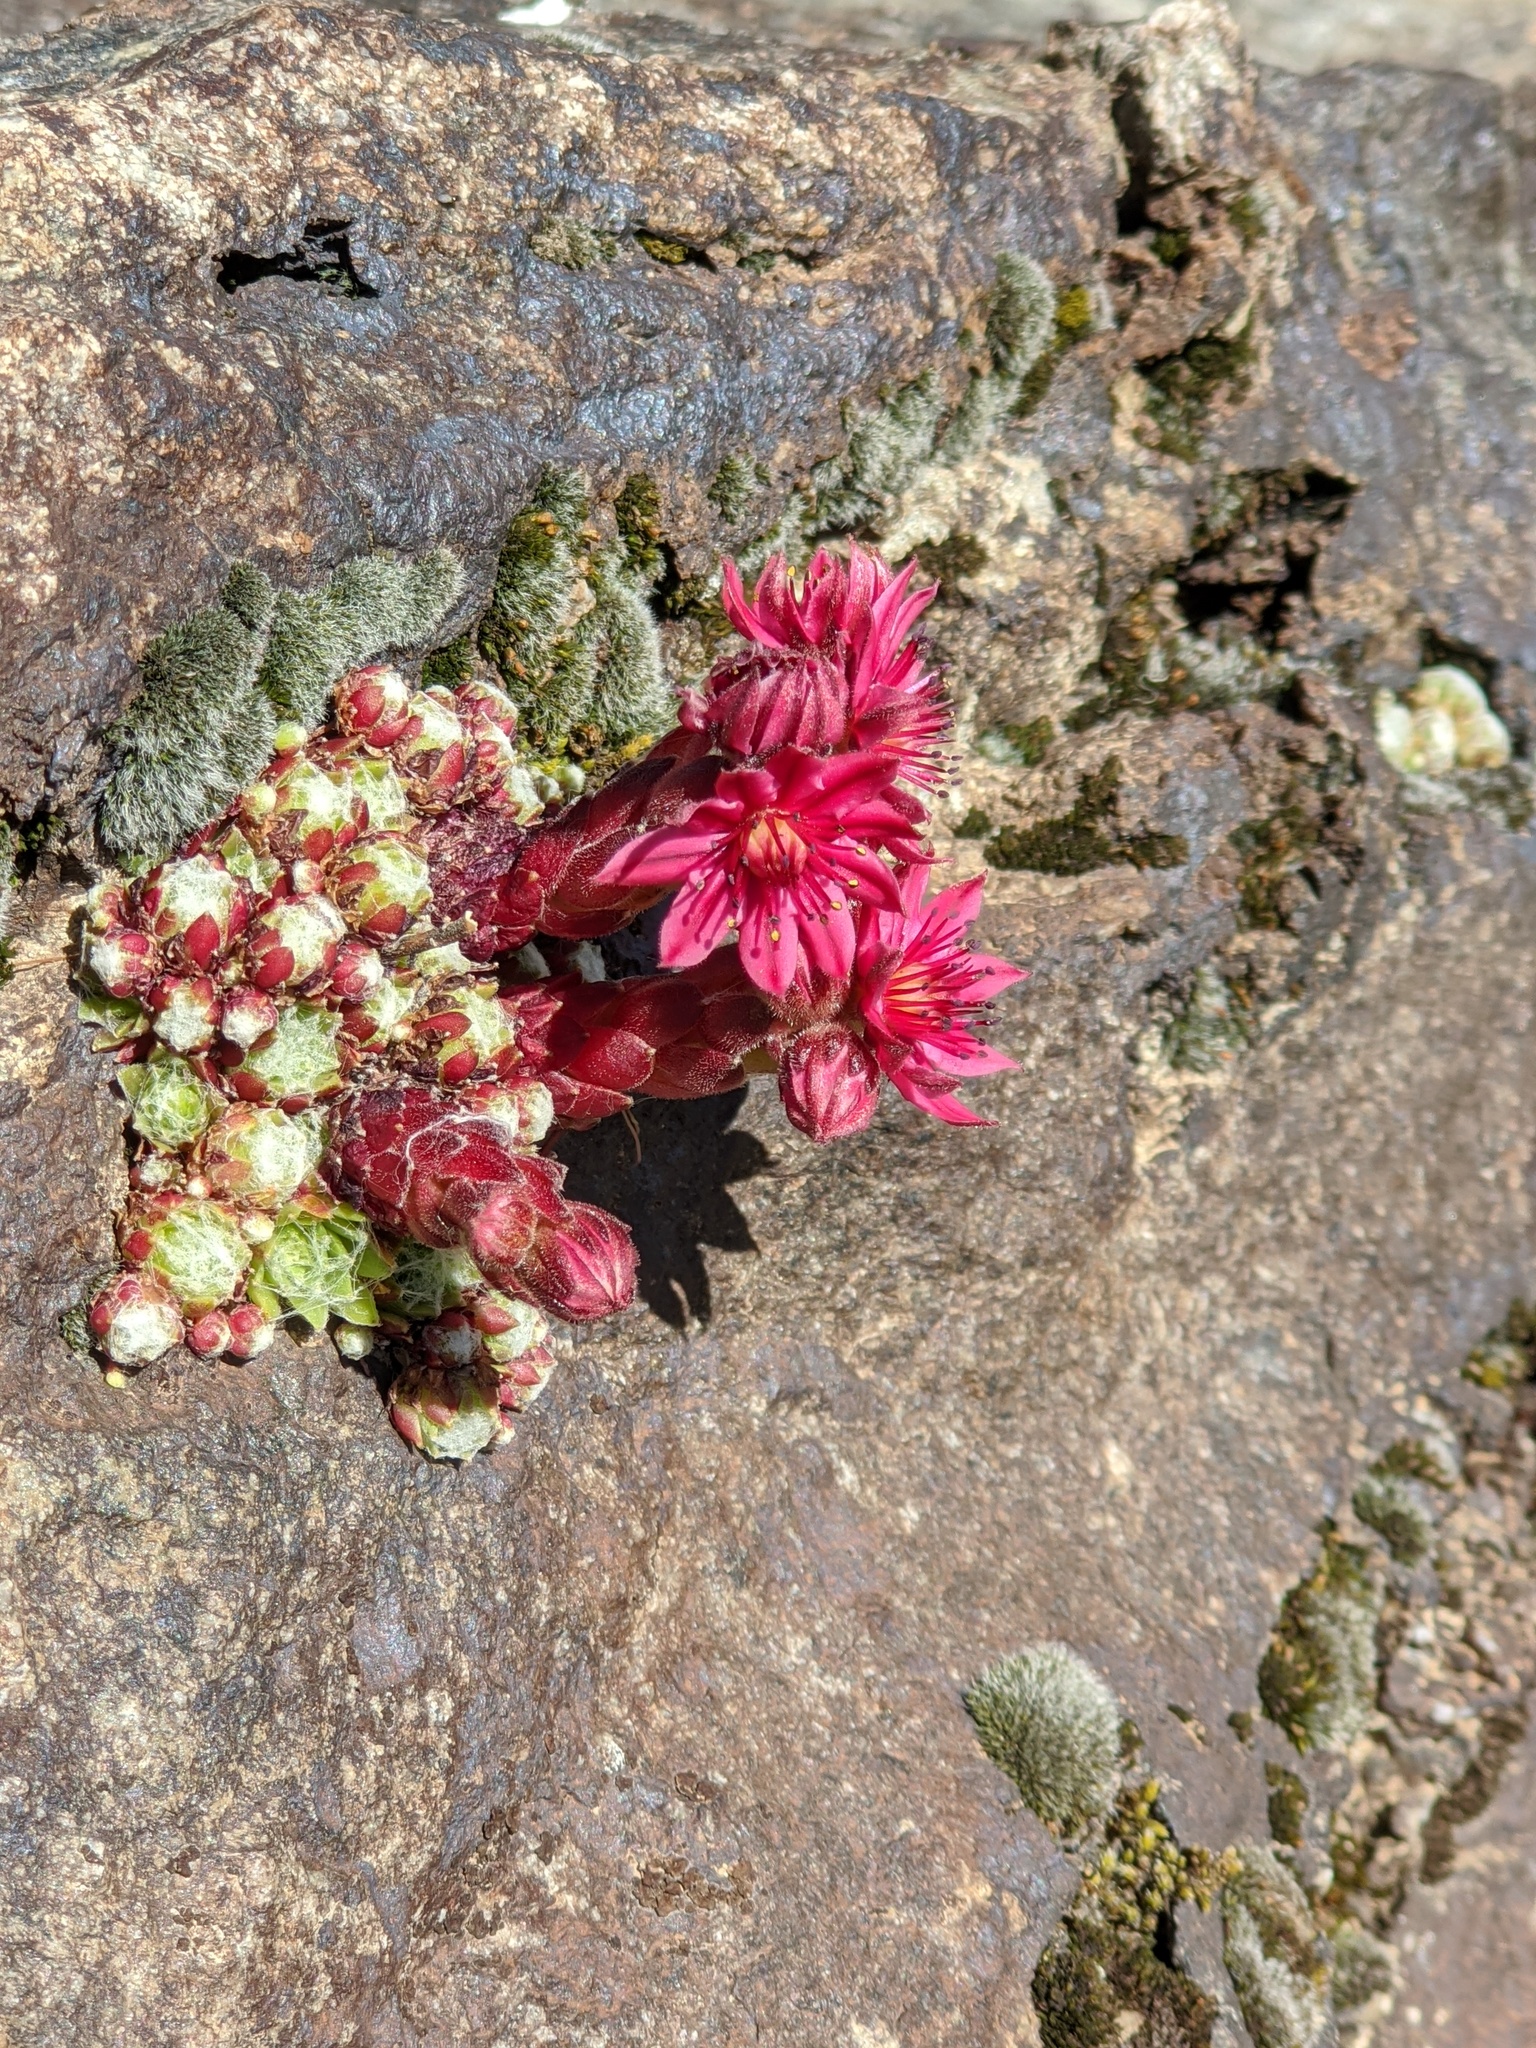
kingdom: Plantae
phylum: Tracheophyta
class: Magnoliopsida
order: Saxifragales
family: Crassulaceae
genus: Sempervivum
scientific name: Sempervivum arachnoideum
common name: Cobweb house-leek
